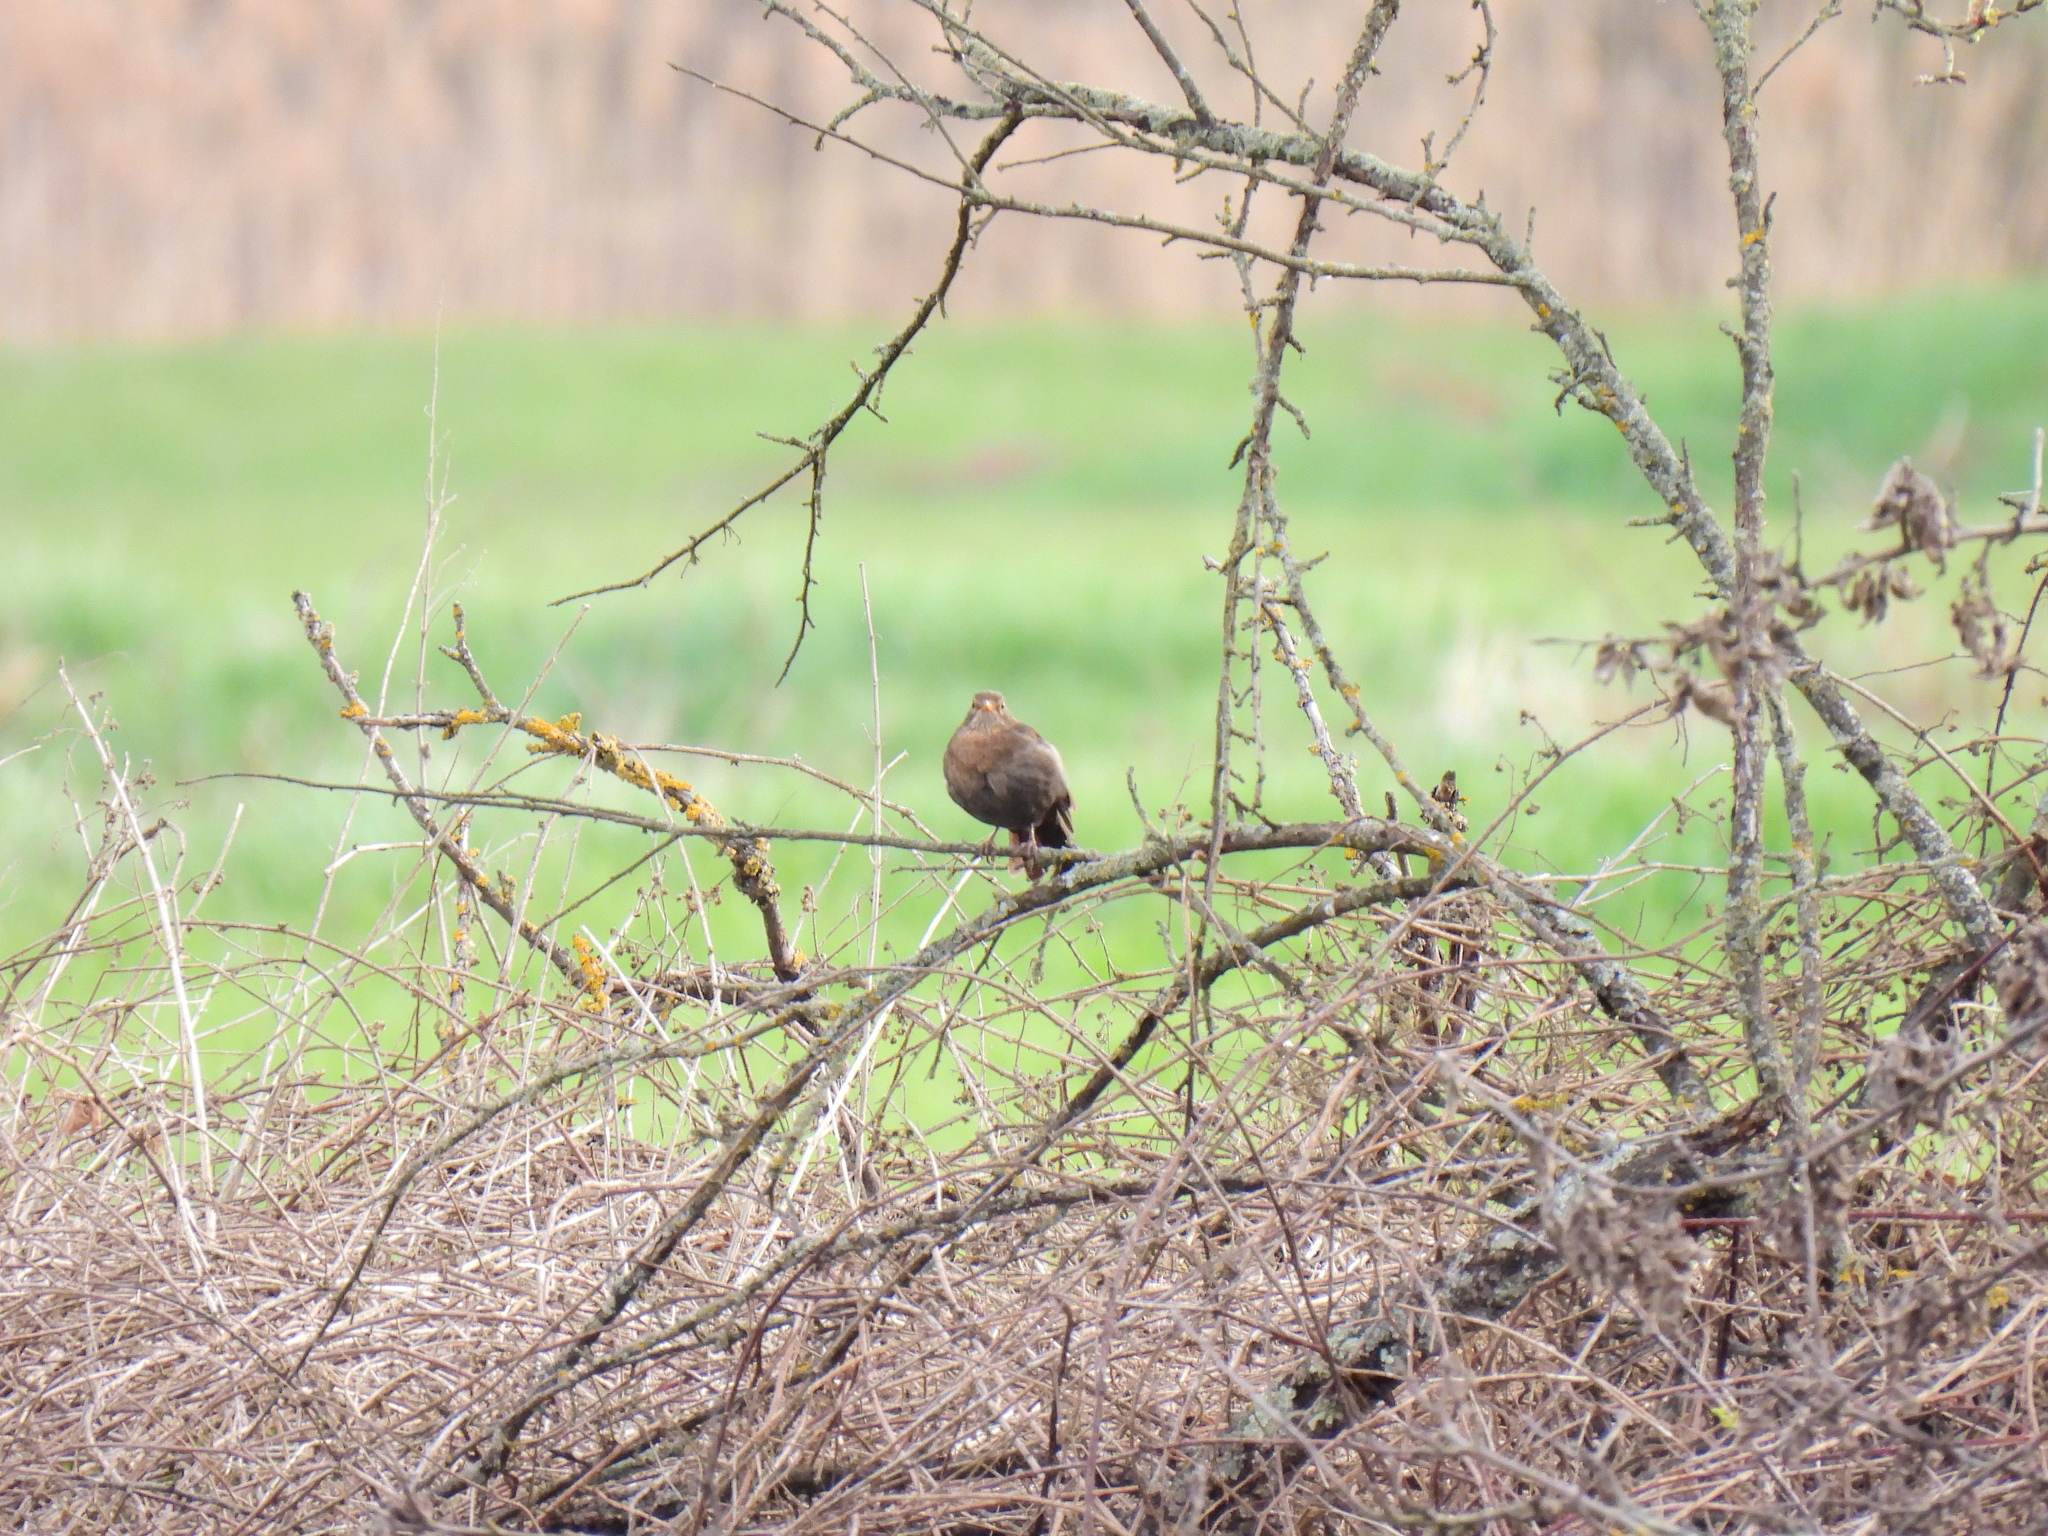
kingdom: Animalia
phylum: Chordata
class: Aves
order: Passeriformes
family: Turdidae
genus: Turdus
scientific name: Turdus merula
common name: Common blackbird
